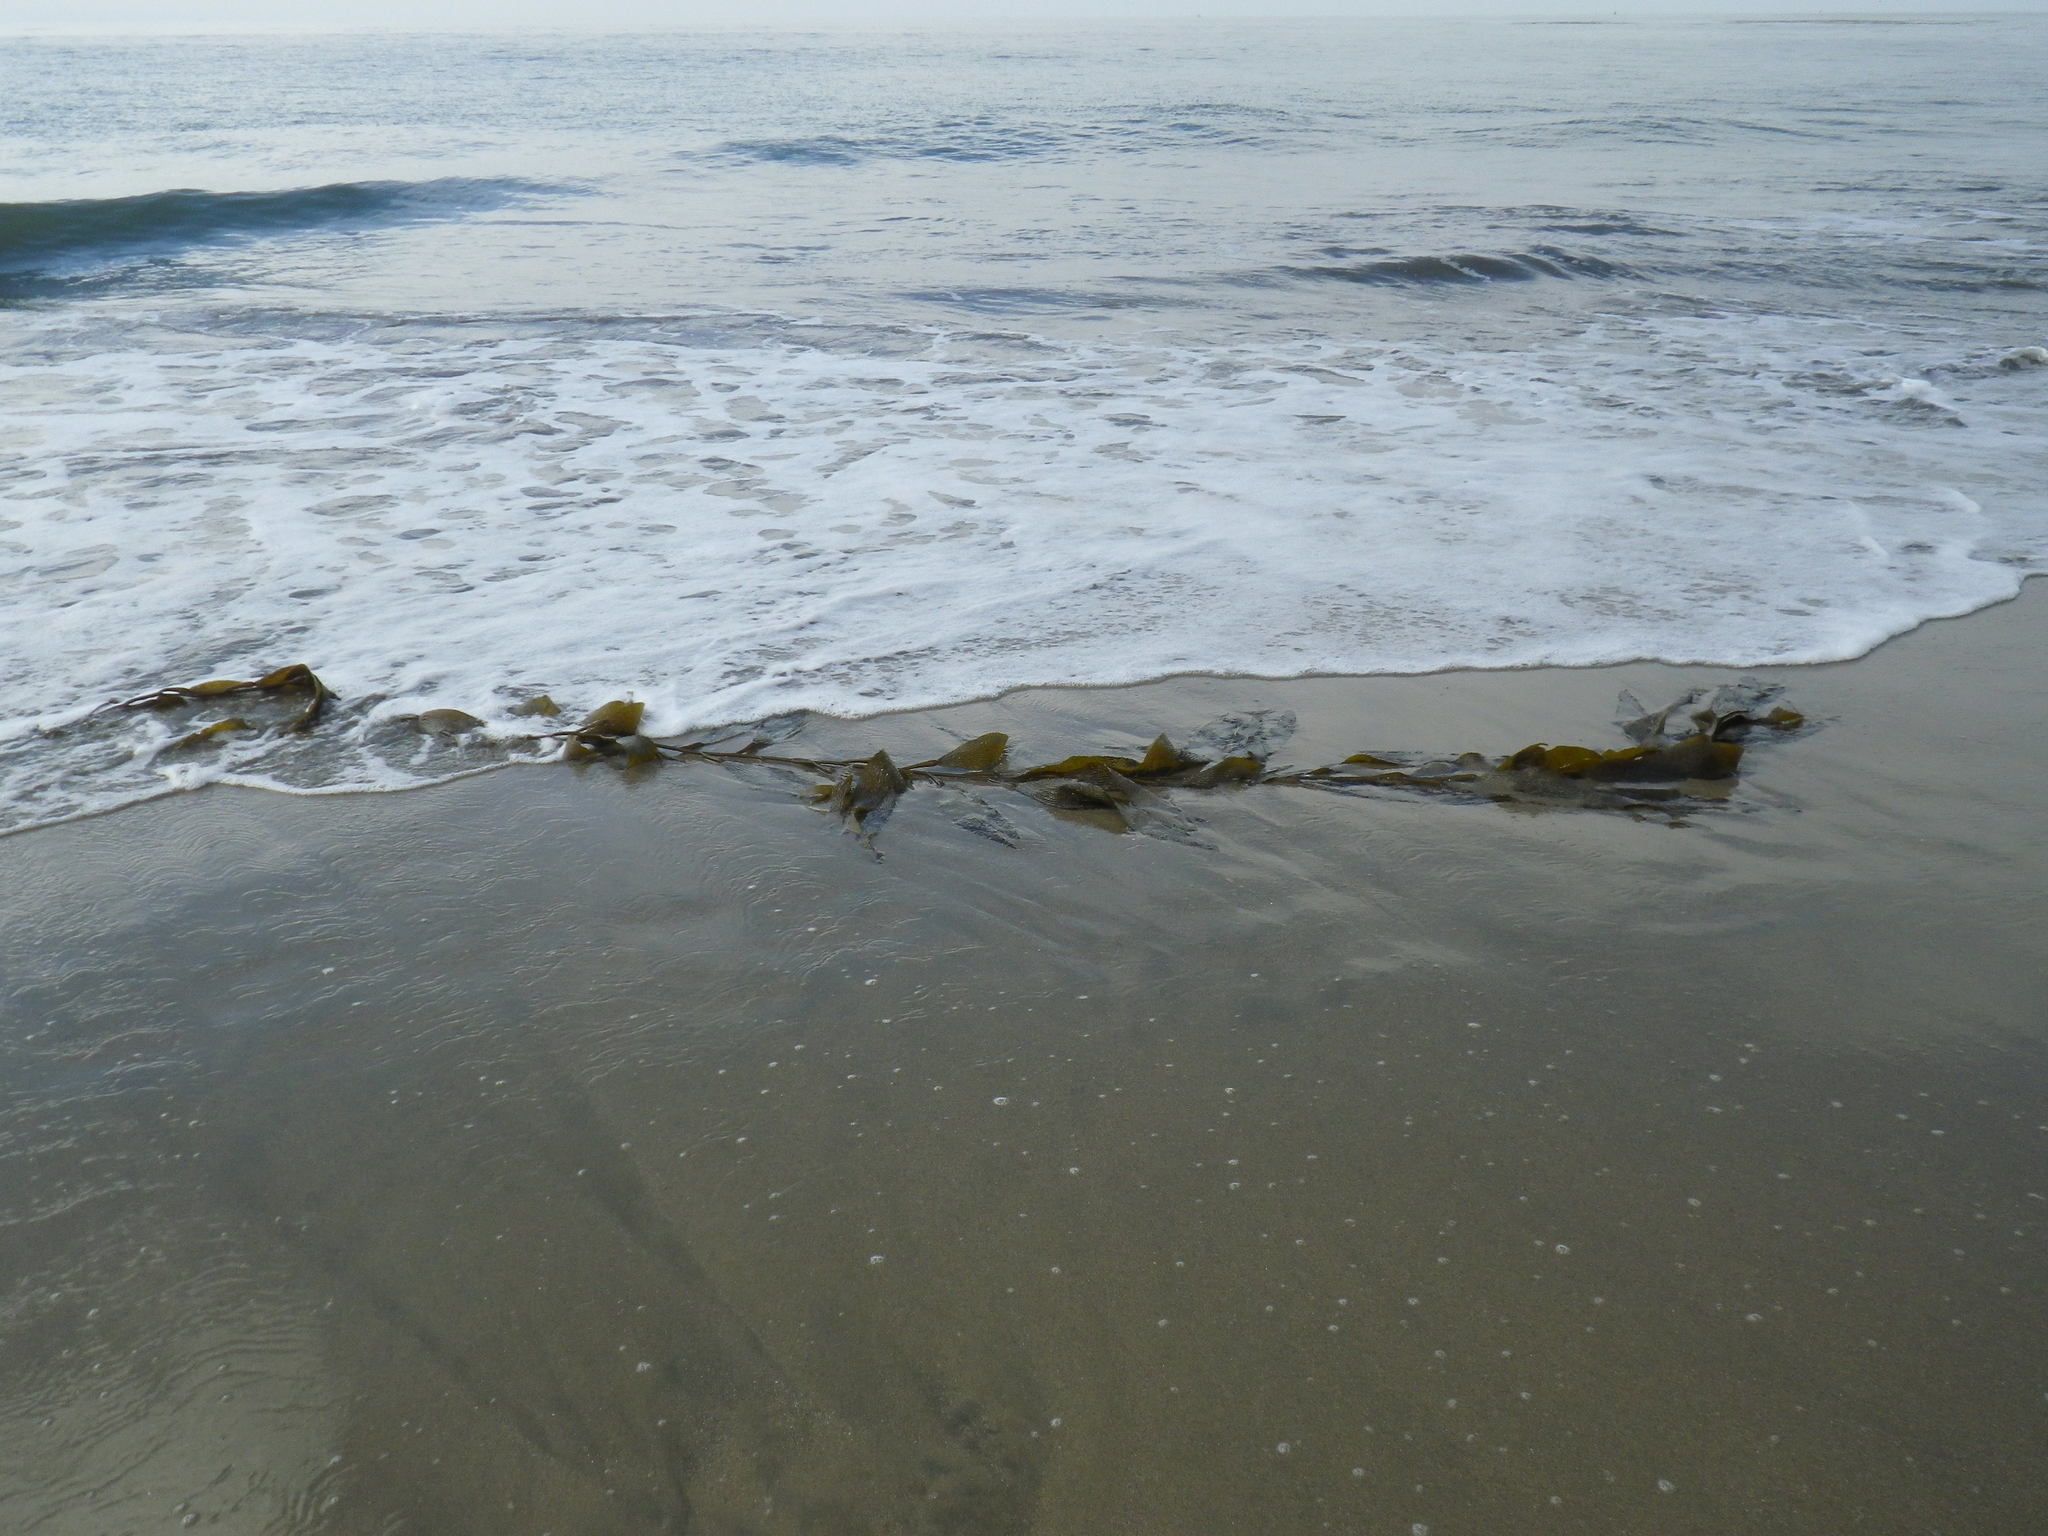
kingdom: Chromista
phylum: Ochrophyta
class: Phaeophyceae
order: Laminariales
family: Laminariaceae
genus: Macrocystis
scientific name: Macrocystis pyrifera
